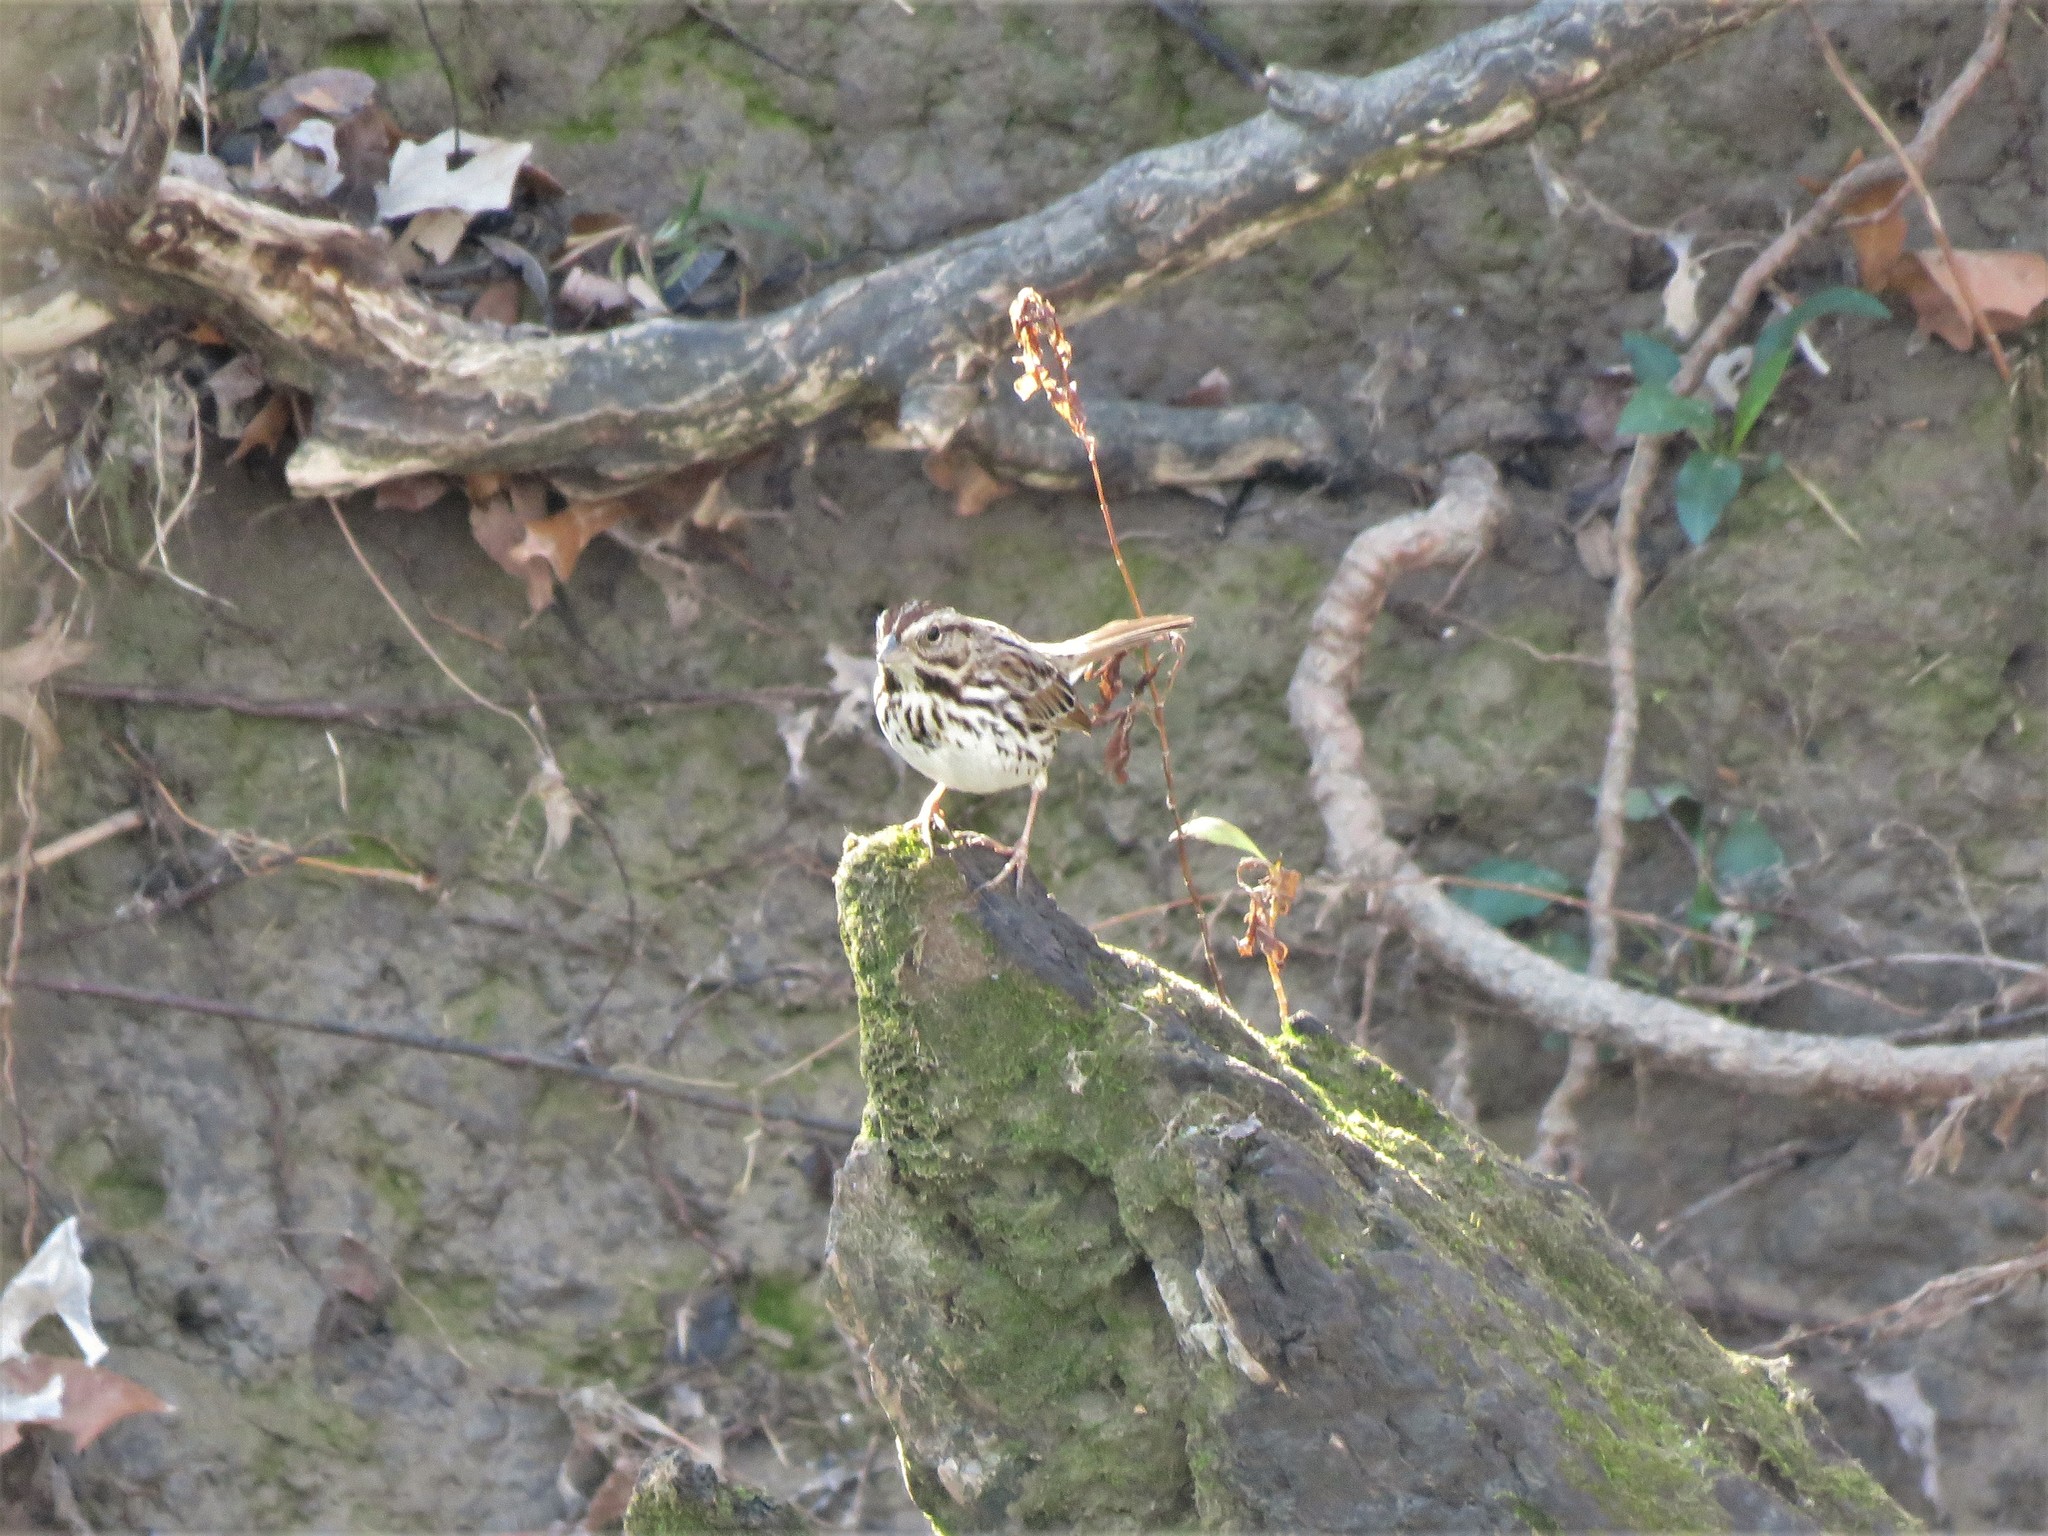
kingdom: Animalia
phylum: Chordata
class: Aves
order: Passeriformes
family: Passerellidae
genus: Melospiza
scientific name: Melospiza melodia
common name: Song sparrow
